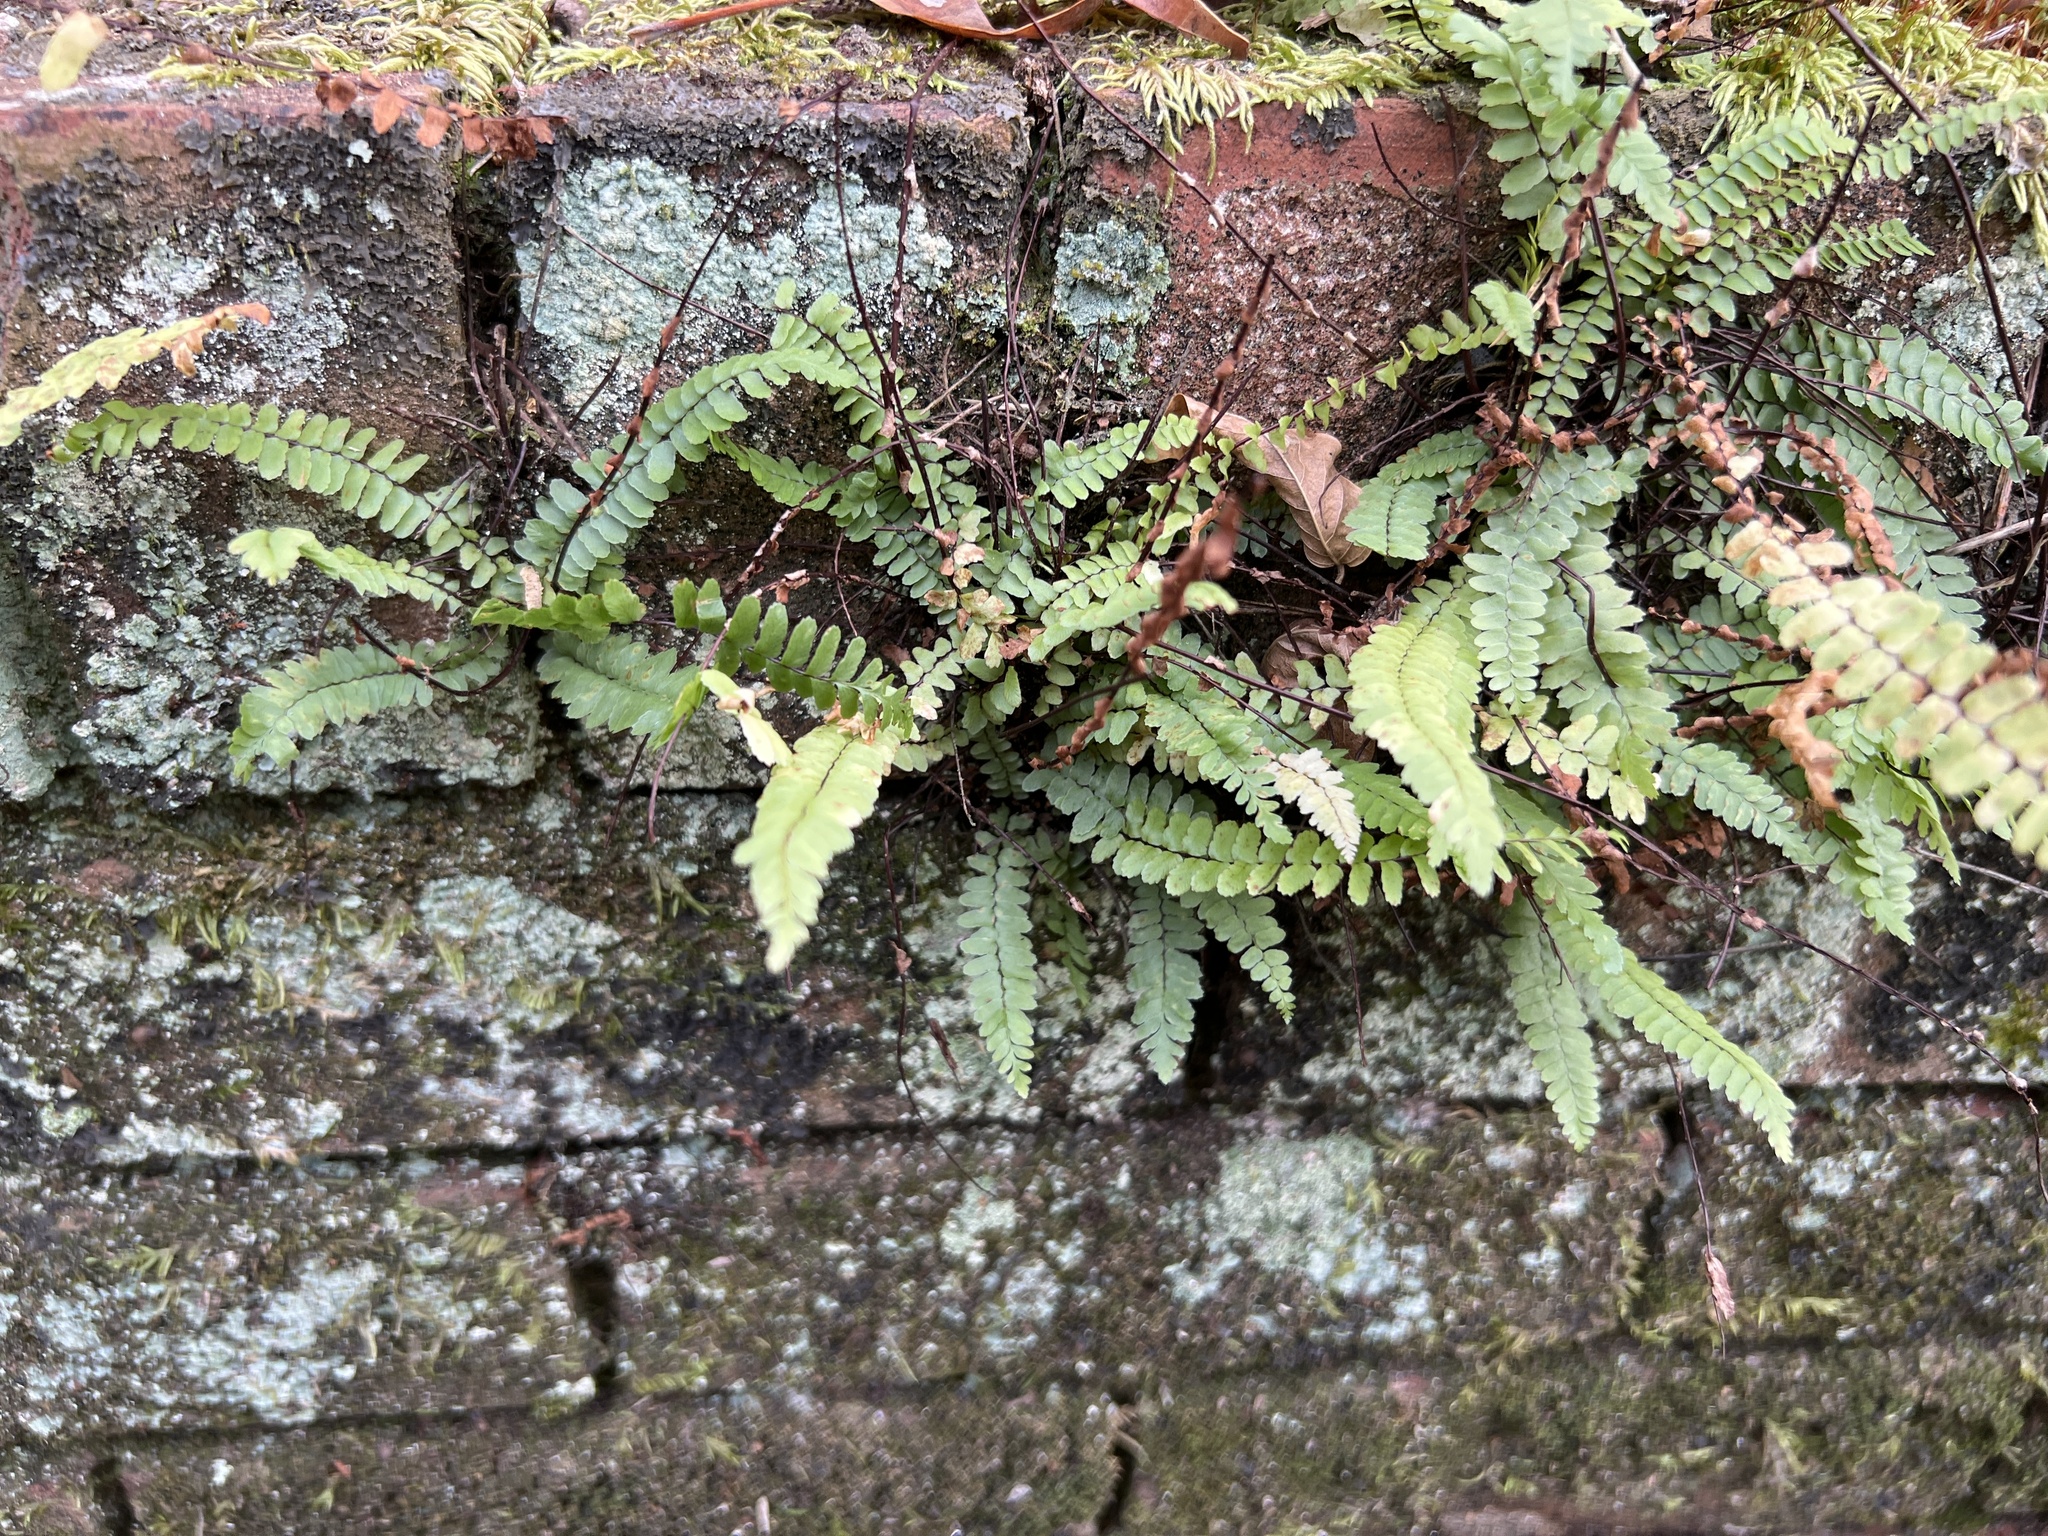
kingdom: Plantae
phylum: Tracheophyta
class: Polypodiopsida
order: Polypodiales
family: Aspleniaceae
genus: Asplenium
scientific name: Asplenium platyneuron
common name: Ebony spleenwort
